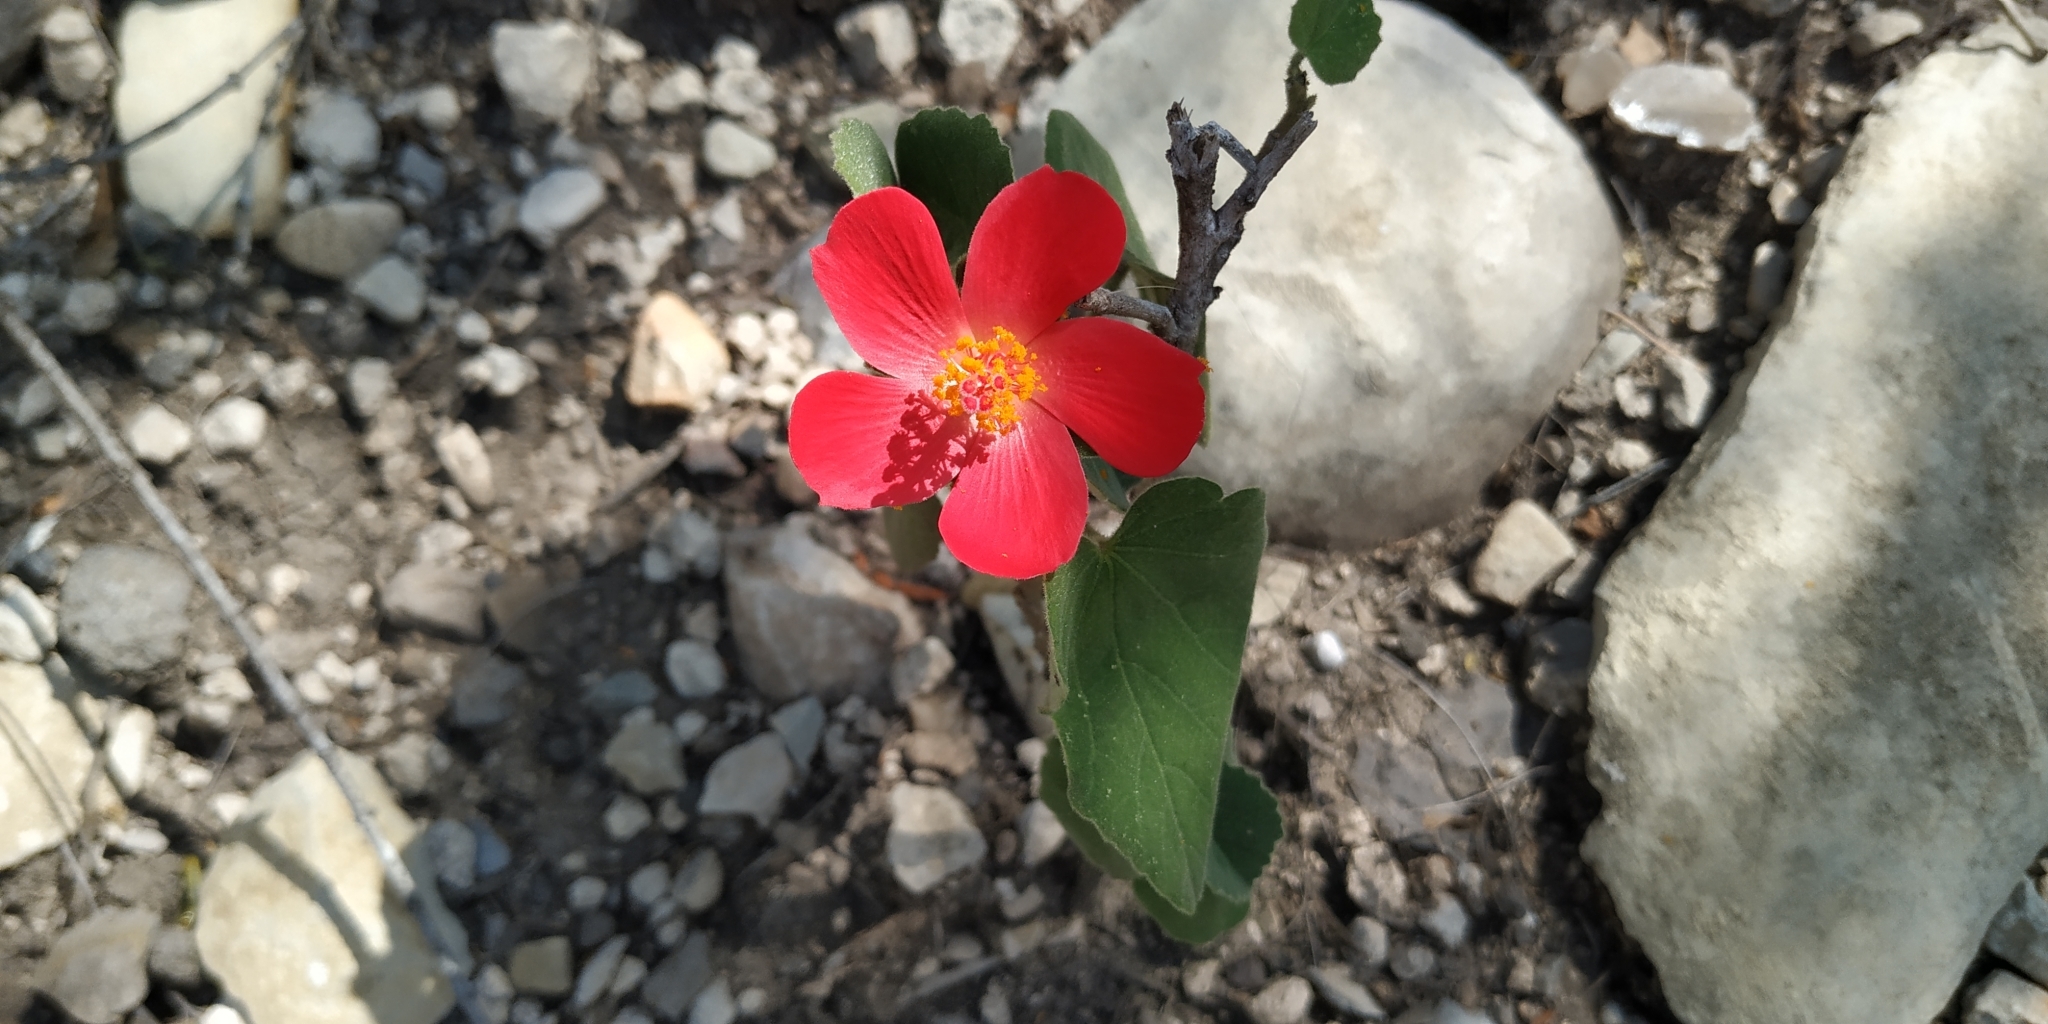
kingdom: Plantae
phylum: Tracheophyta
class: Magnoliopsida
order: Malvales
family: Malvaceae
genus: Hibiscus
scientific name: Hibiscus martianus
